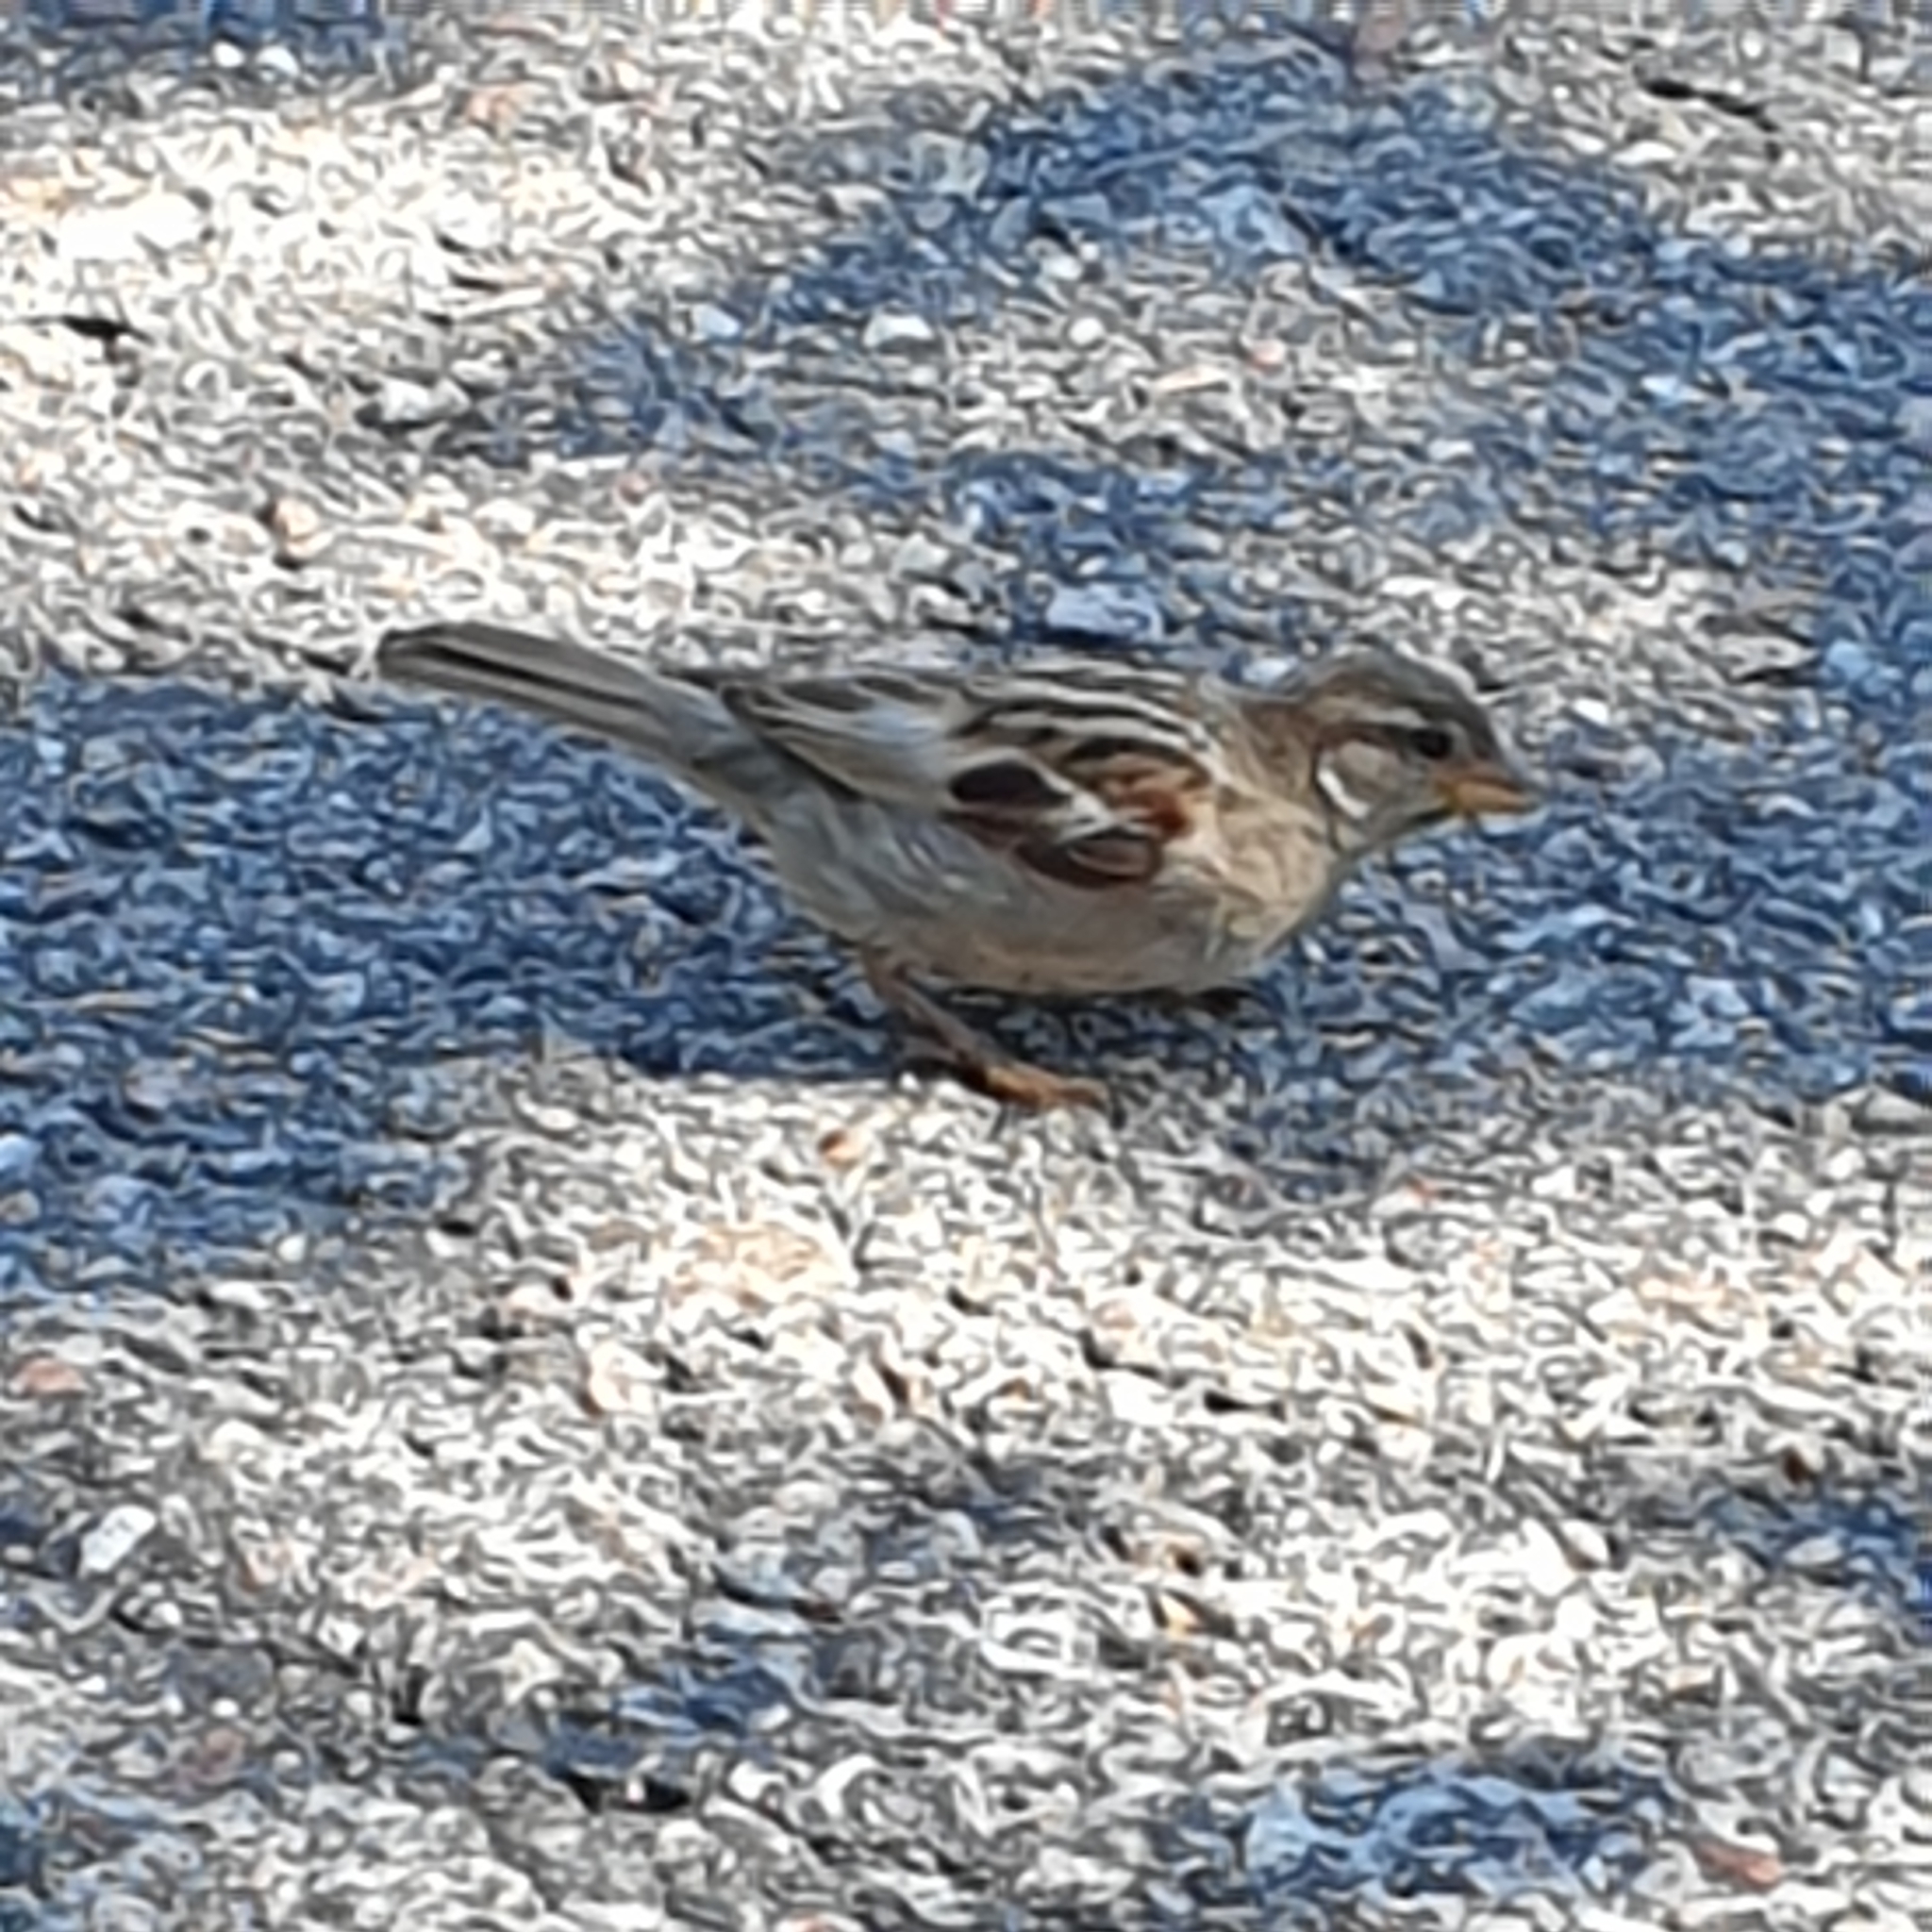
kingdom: Animalia
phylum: Chordata
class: Aves
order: Passeriformes
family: Passeridae
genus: Passer
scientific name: Passer domesticus
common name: House sparrow
